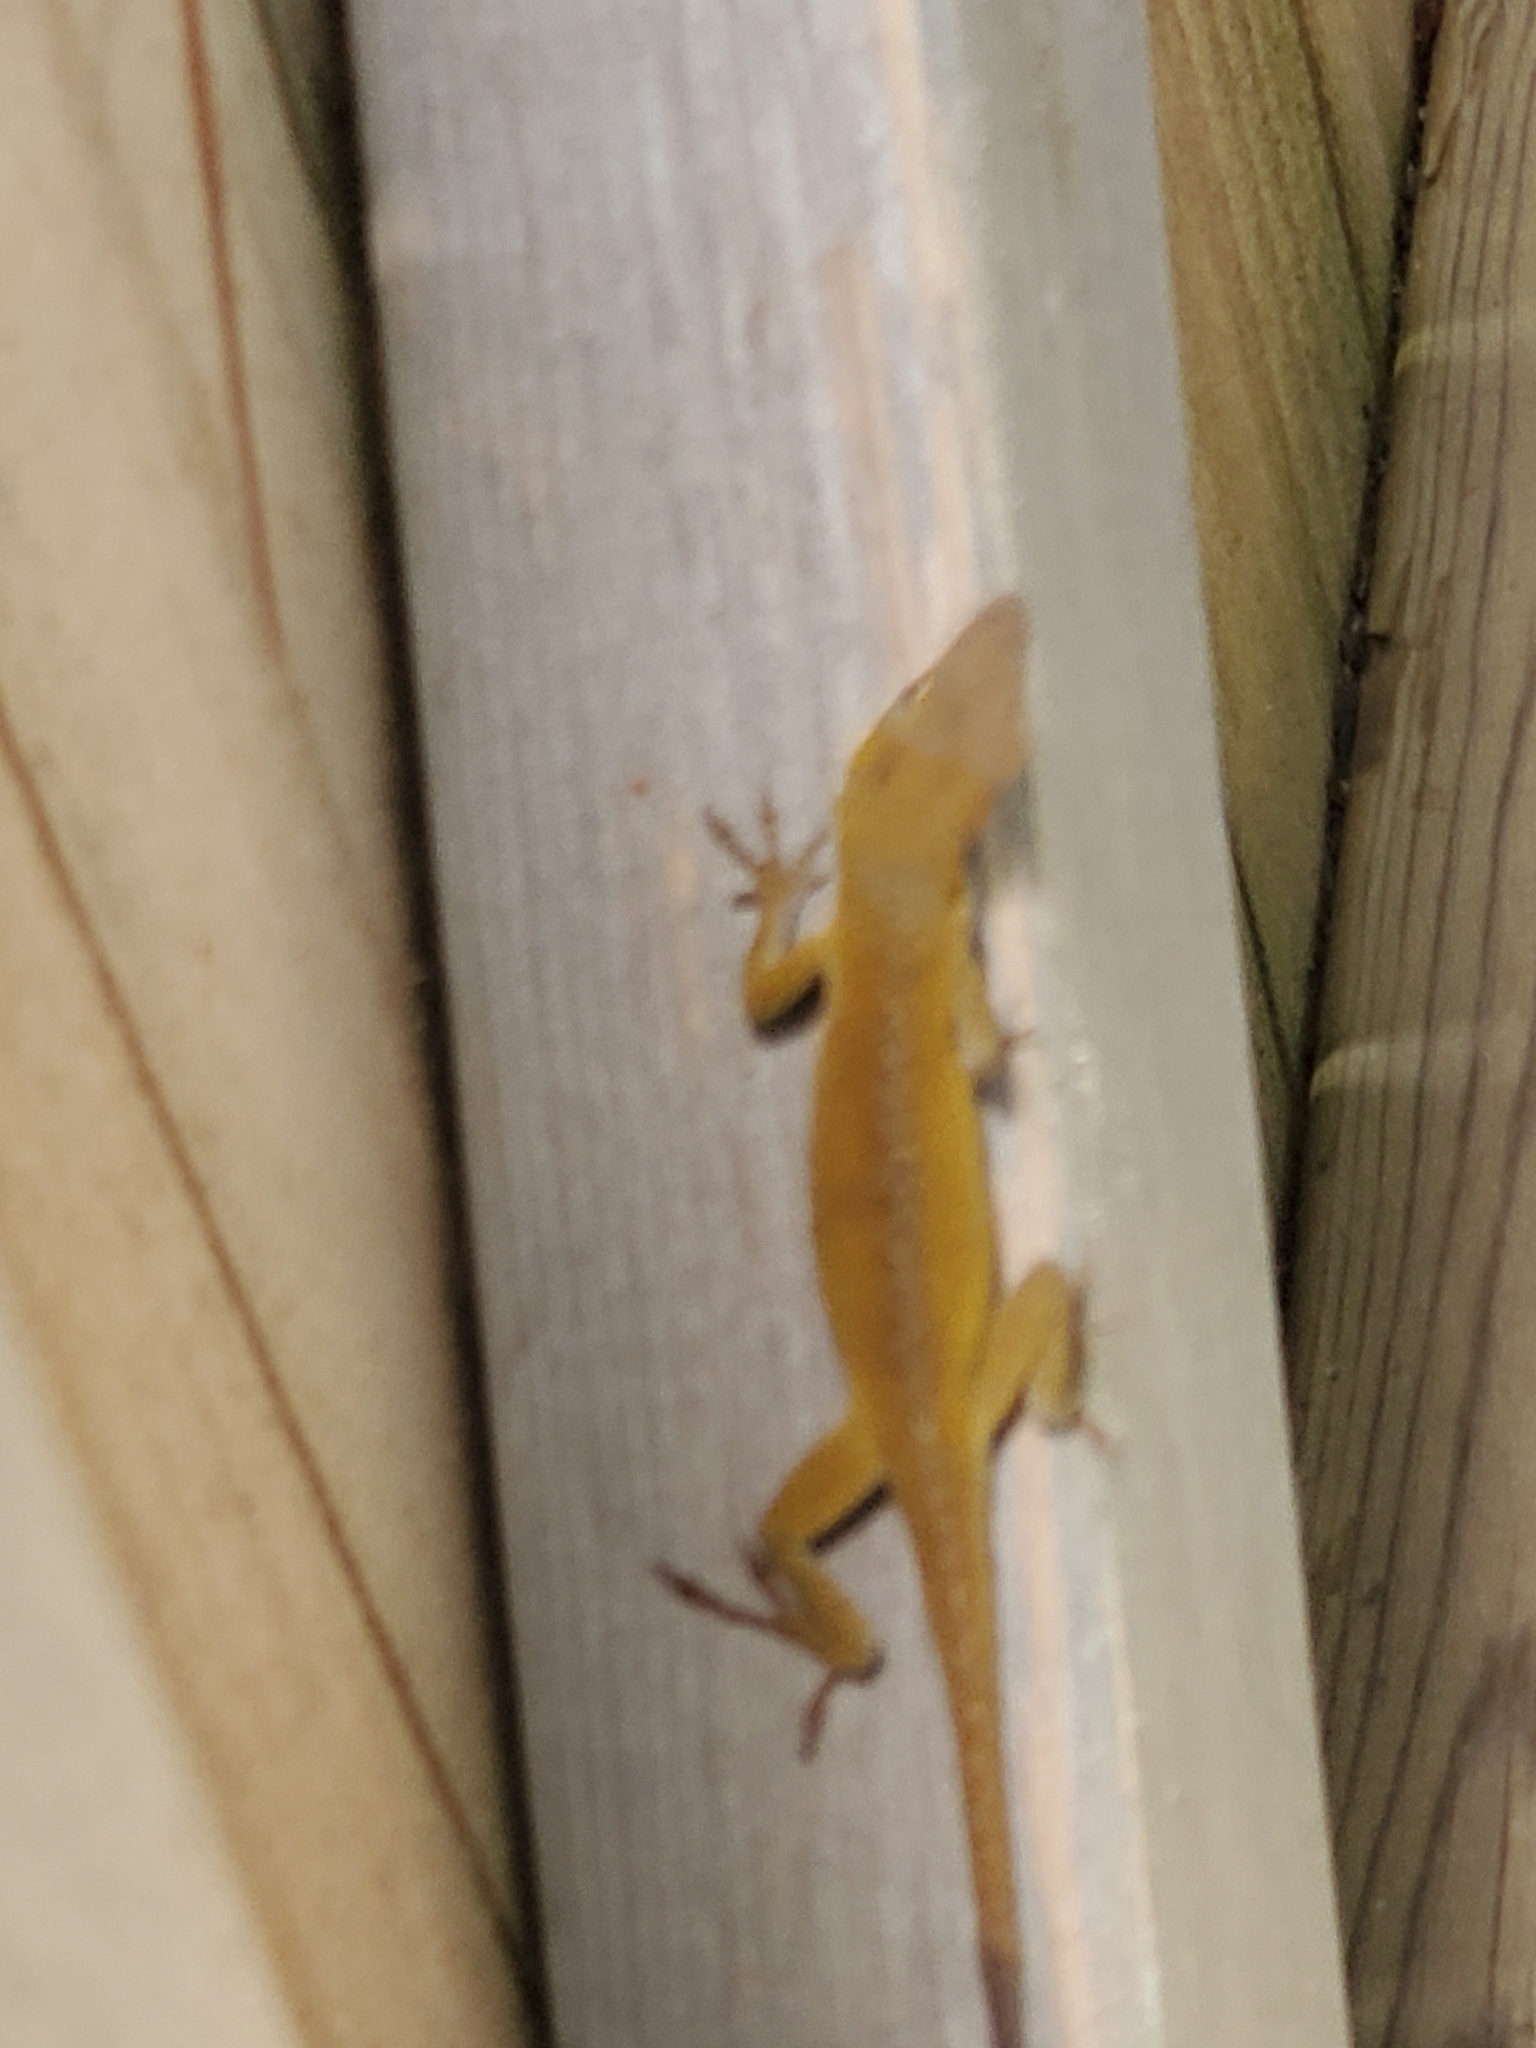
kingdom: Animalia
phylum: Chordata
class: Squamata
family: Dactyloidae
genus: Anolis
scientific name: Anolis carolinensis
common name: Green anole
